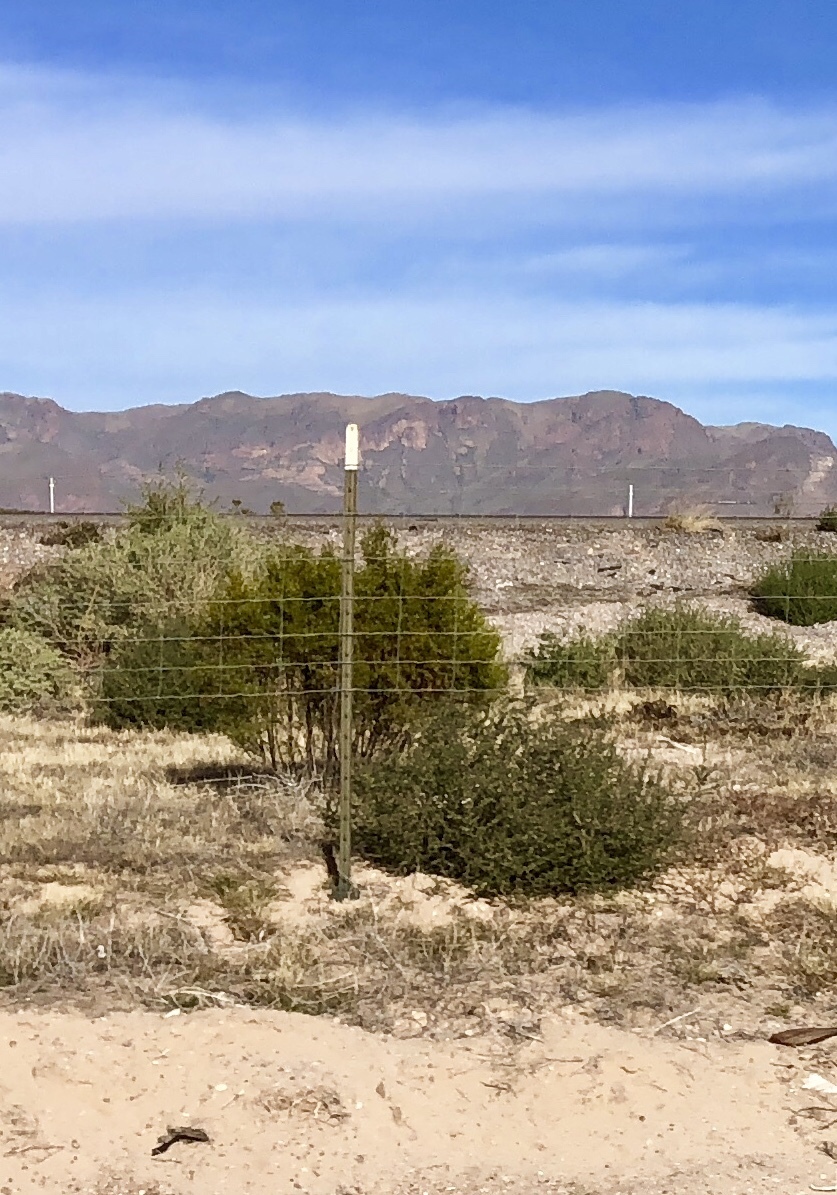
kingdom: Plantae
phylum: Tracheophyta
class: Magnoliopsida
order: Zygophyllales
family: Zygophyllaceae
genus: Larrea
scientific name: Larrea tridentata
